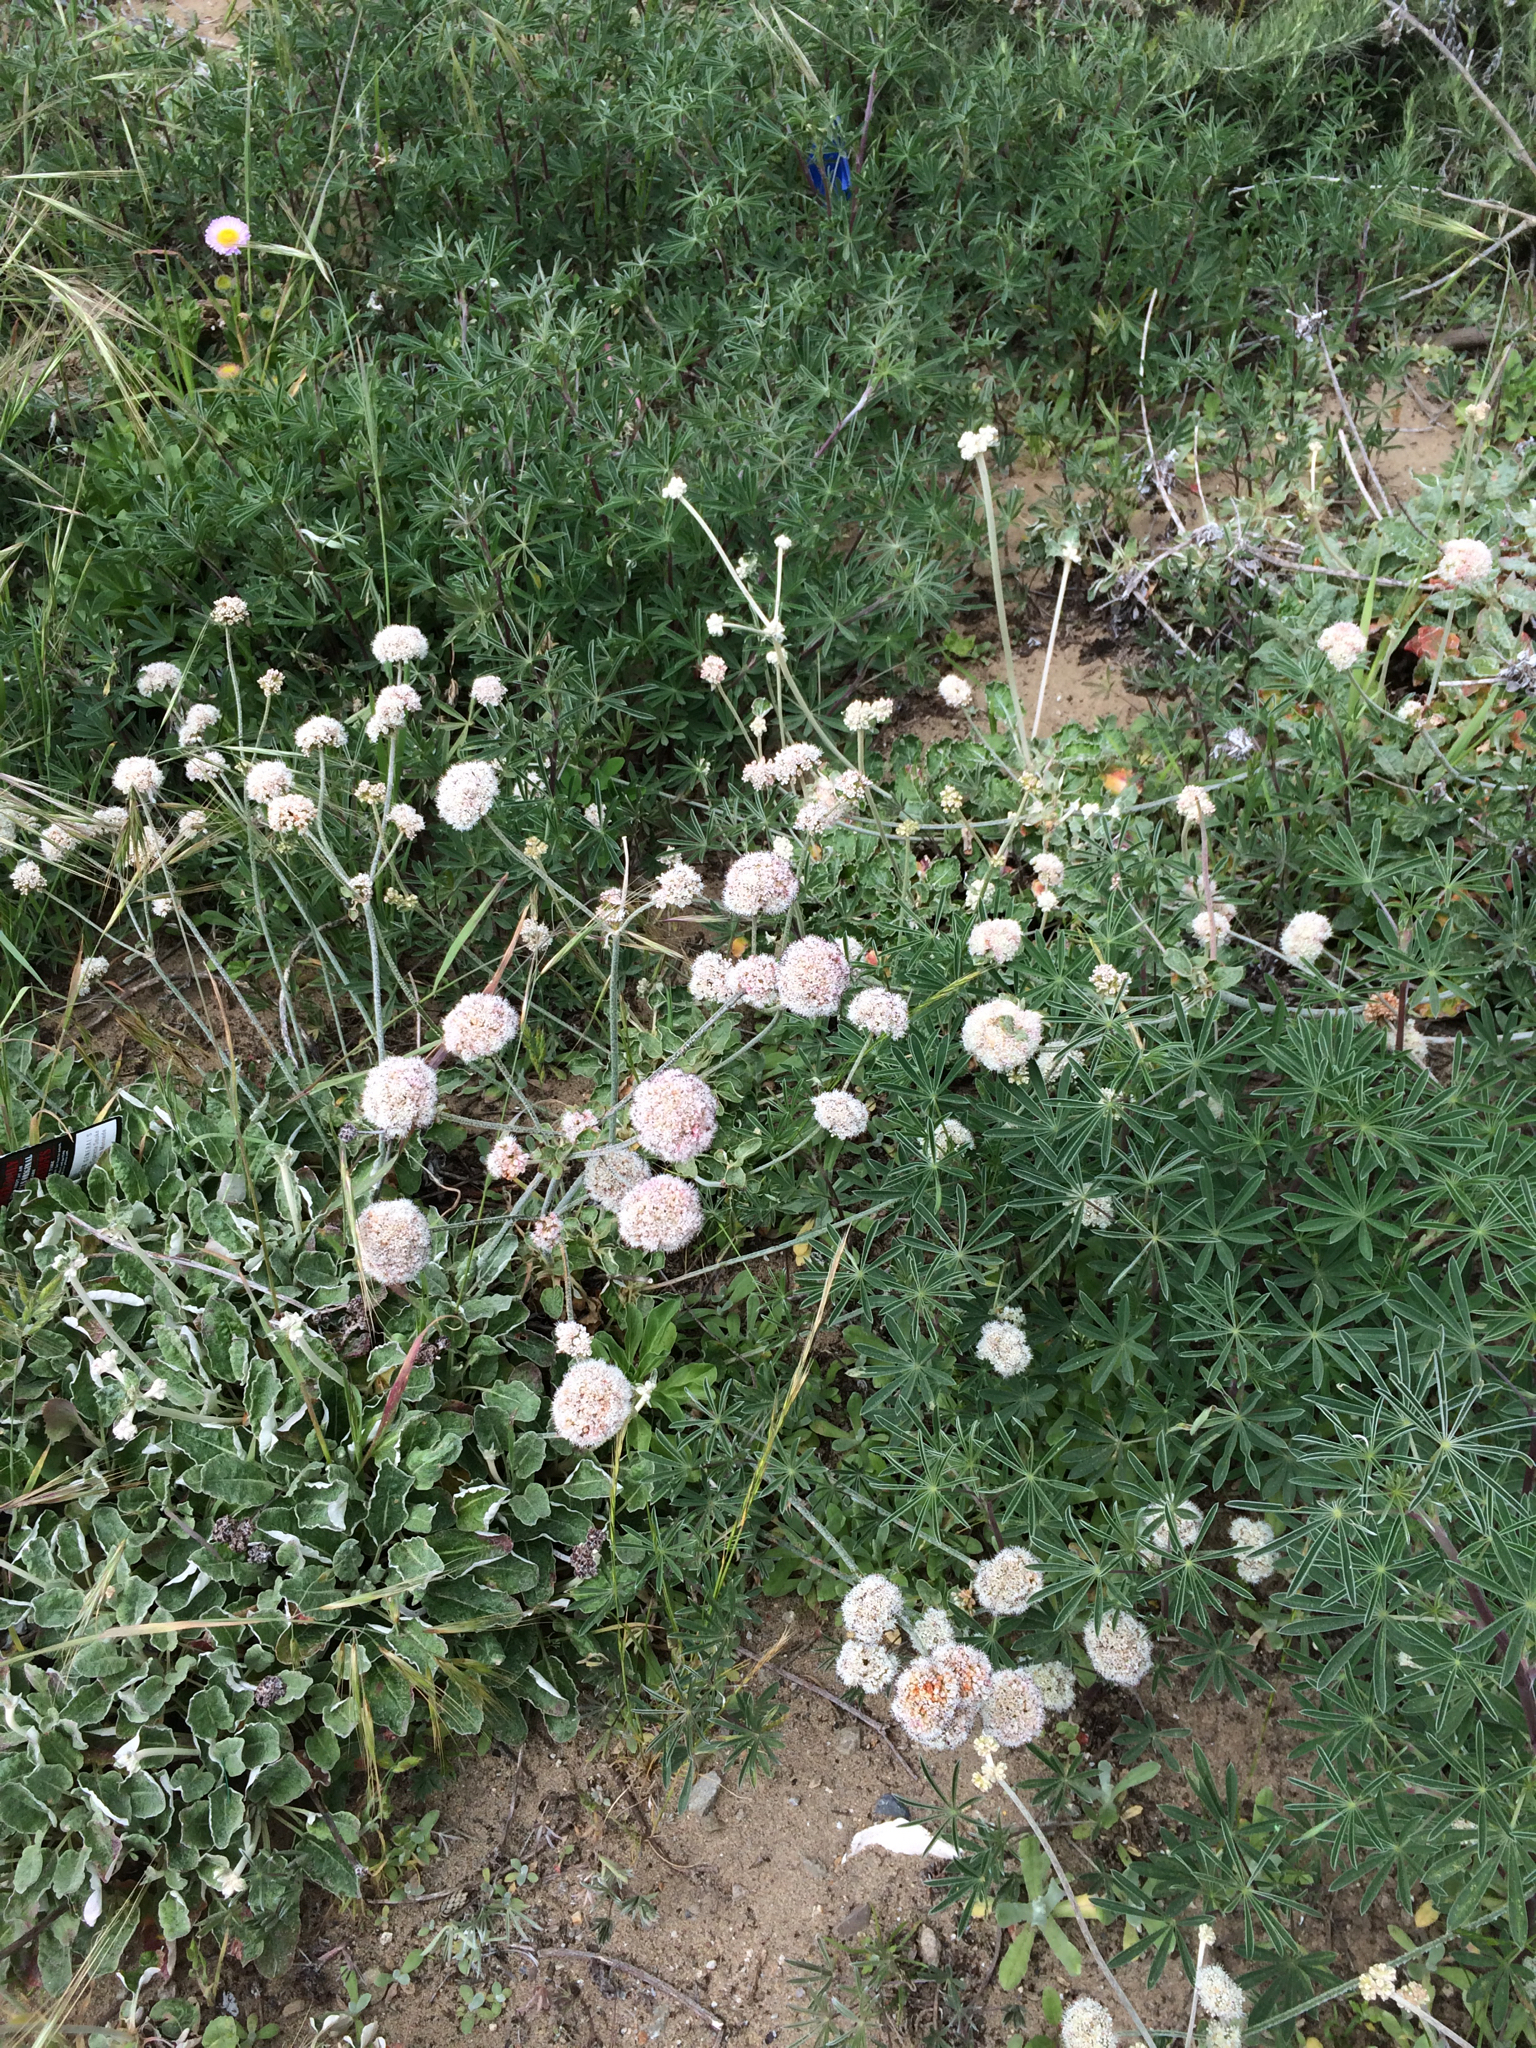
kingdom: Plantae
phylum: Tracheophyta
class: Magnoliopsida
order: Caryophyllales
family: Polygonaceae
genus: Eriogonum
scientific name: Eriogonum latifolium
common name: Seaside wild buckwheat
